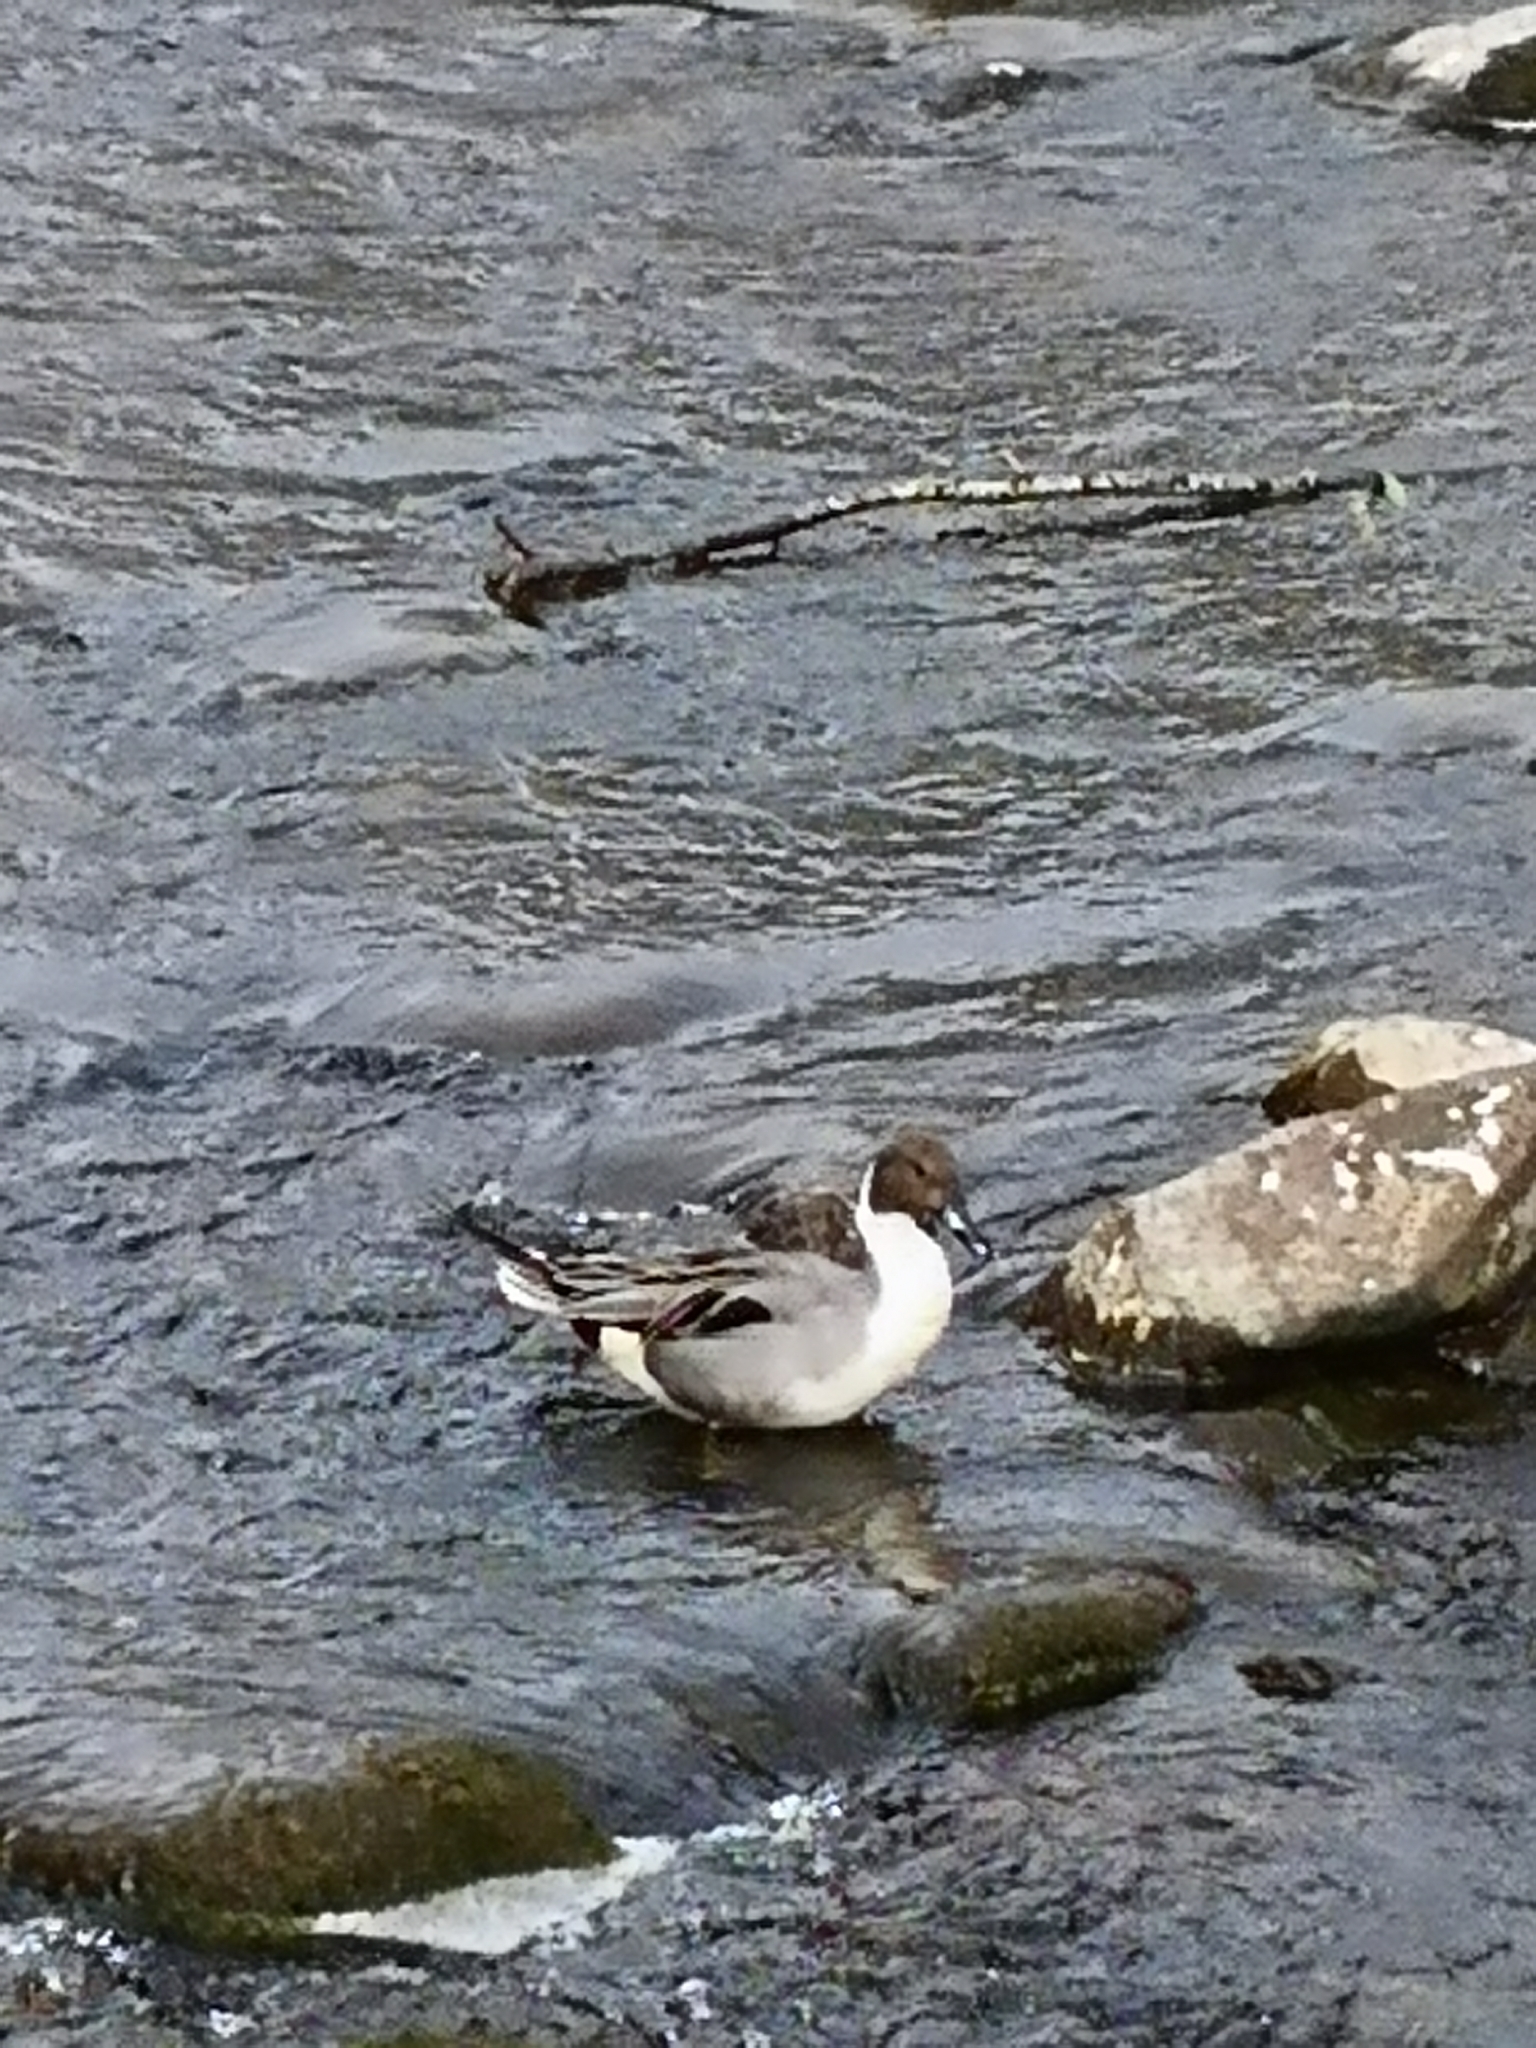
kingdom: Animalia
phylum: Chordata
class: Aves
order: Anseriformes
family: Anatidae
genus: Anas
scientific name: Anas acuta
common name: Northern pintail
